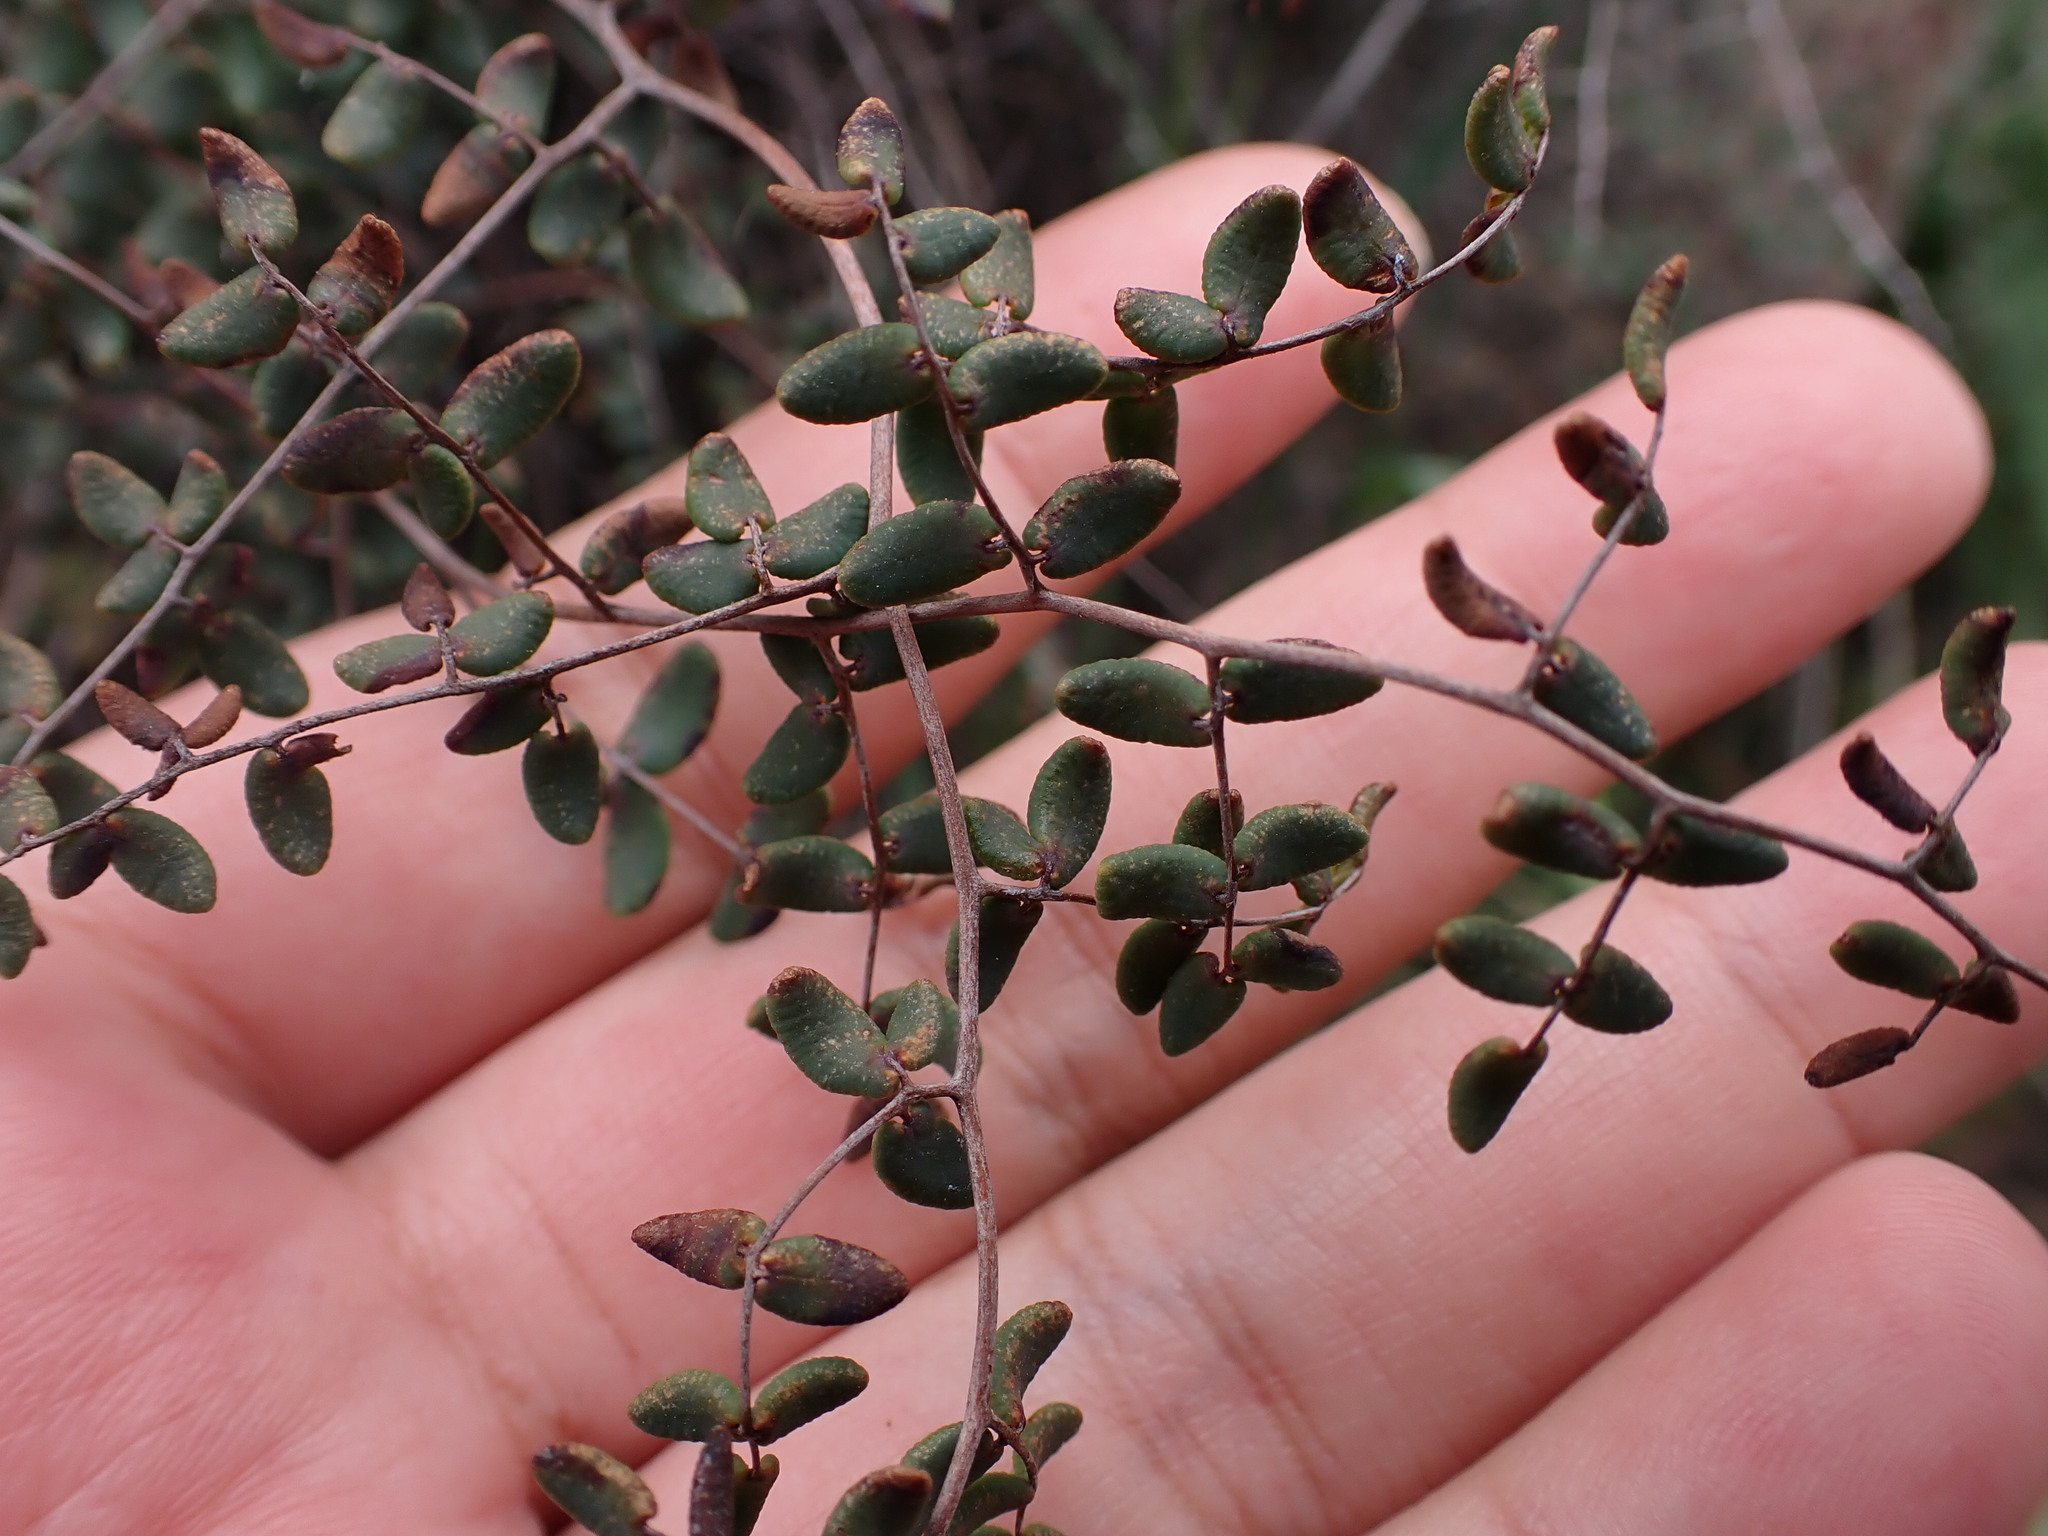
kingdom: Plantae
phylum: Tracheophyta
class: Polypodiopsida
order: Polypodiales
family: Pteridaceae
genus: Pellaea
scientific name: Pellaea andromedifolia
